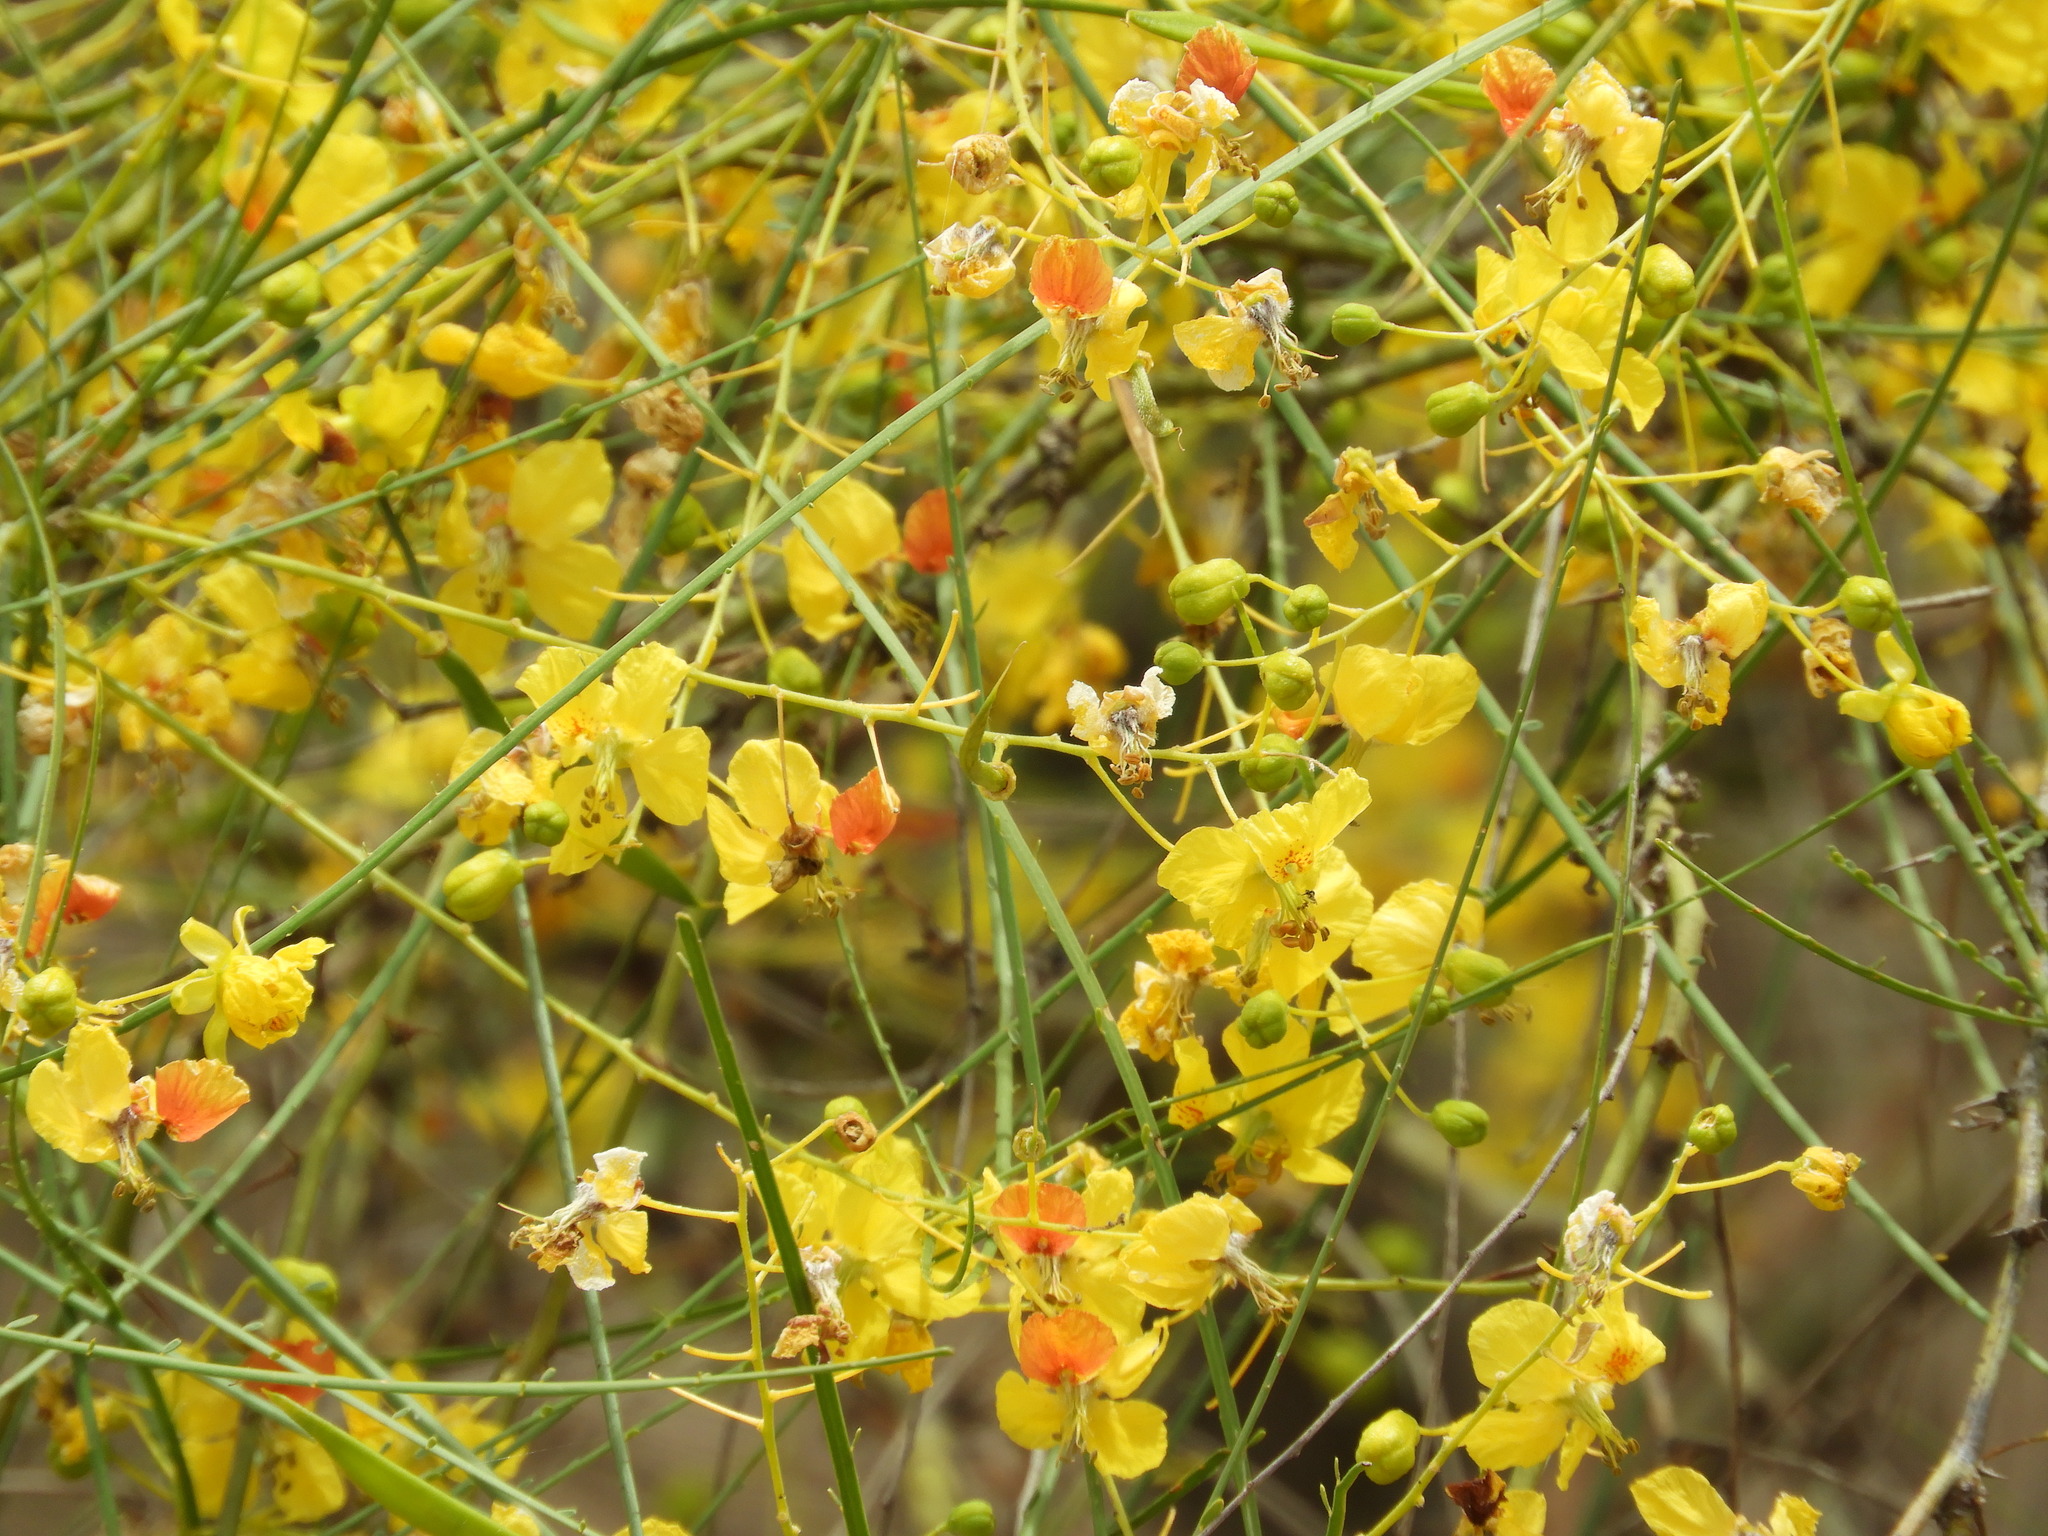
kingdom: Plantae
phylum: Tracheophyta
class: Magnoliopsida
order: Fabales
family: Fabaceae
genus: Parkinsonia
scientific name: Parkinsonia aculeata
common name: Jerusalem thorn
